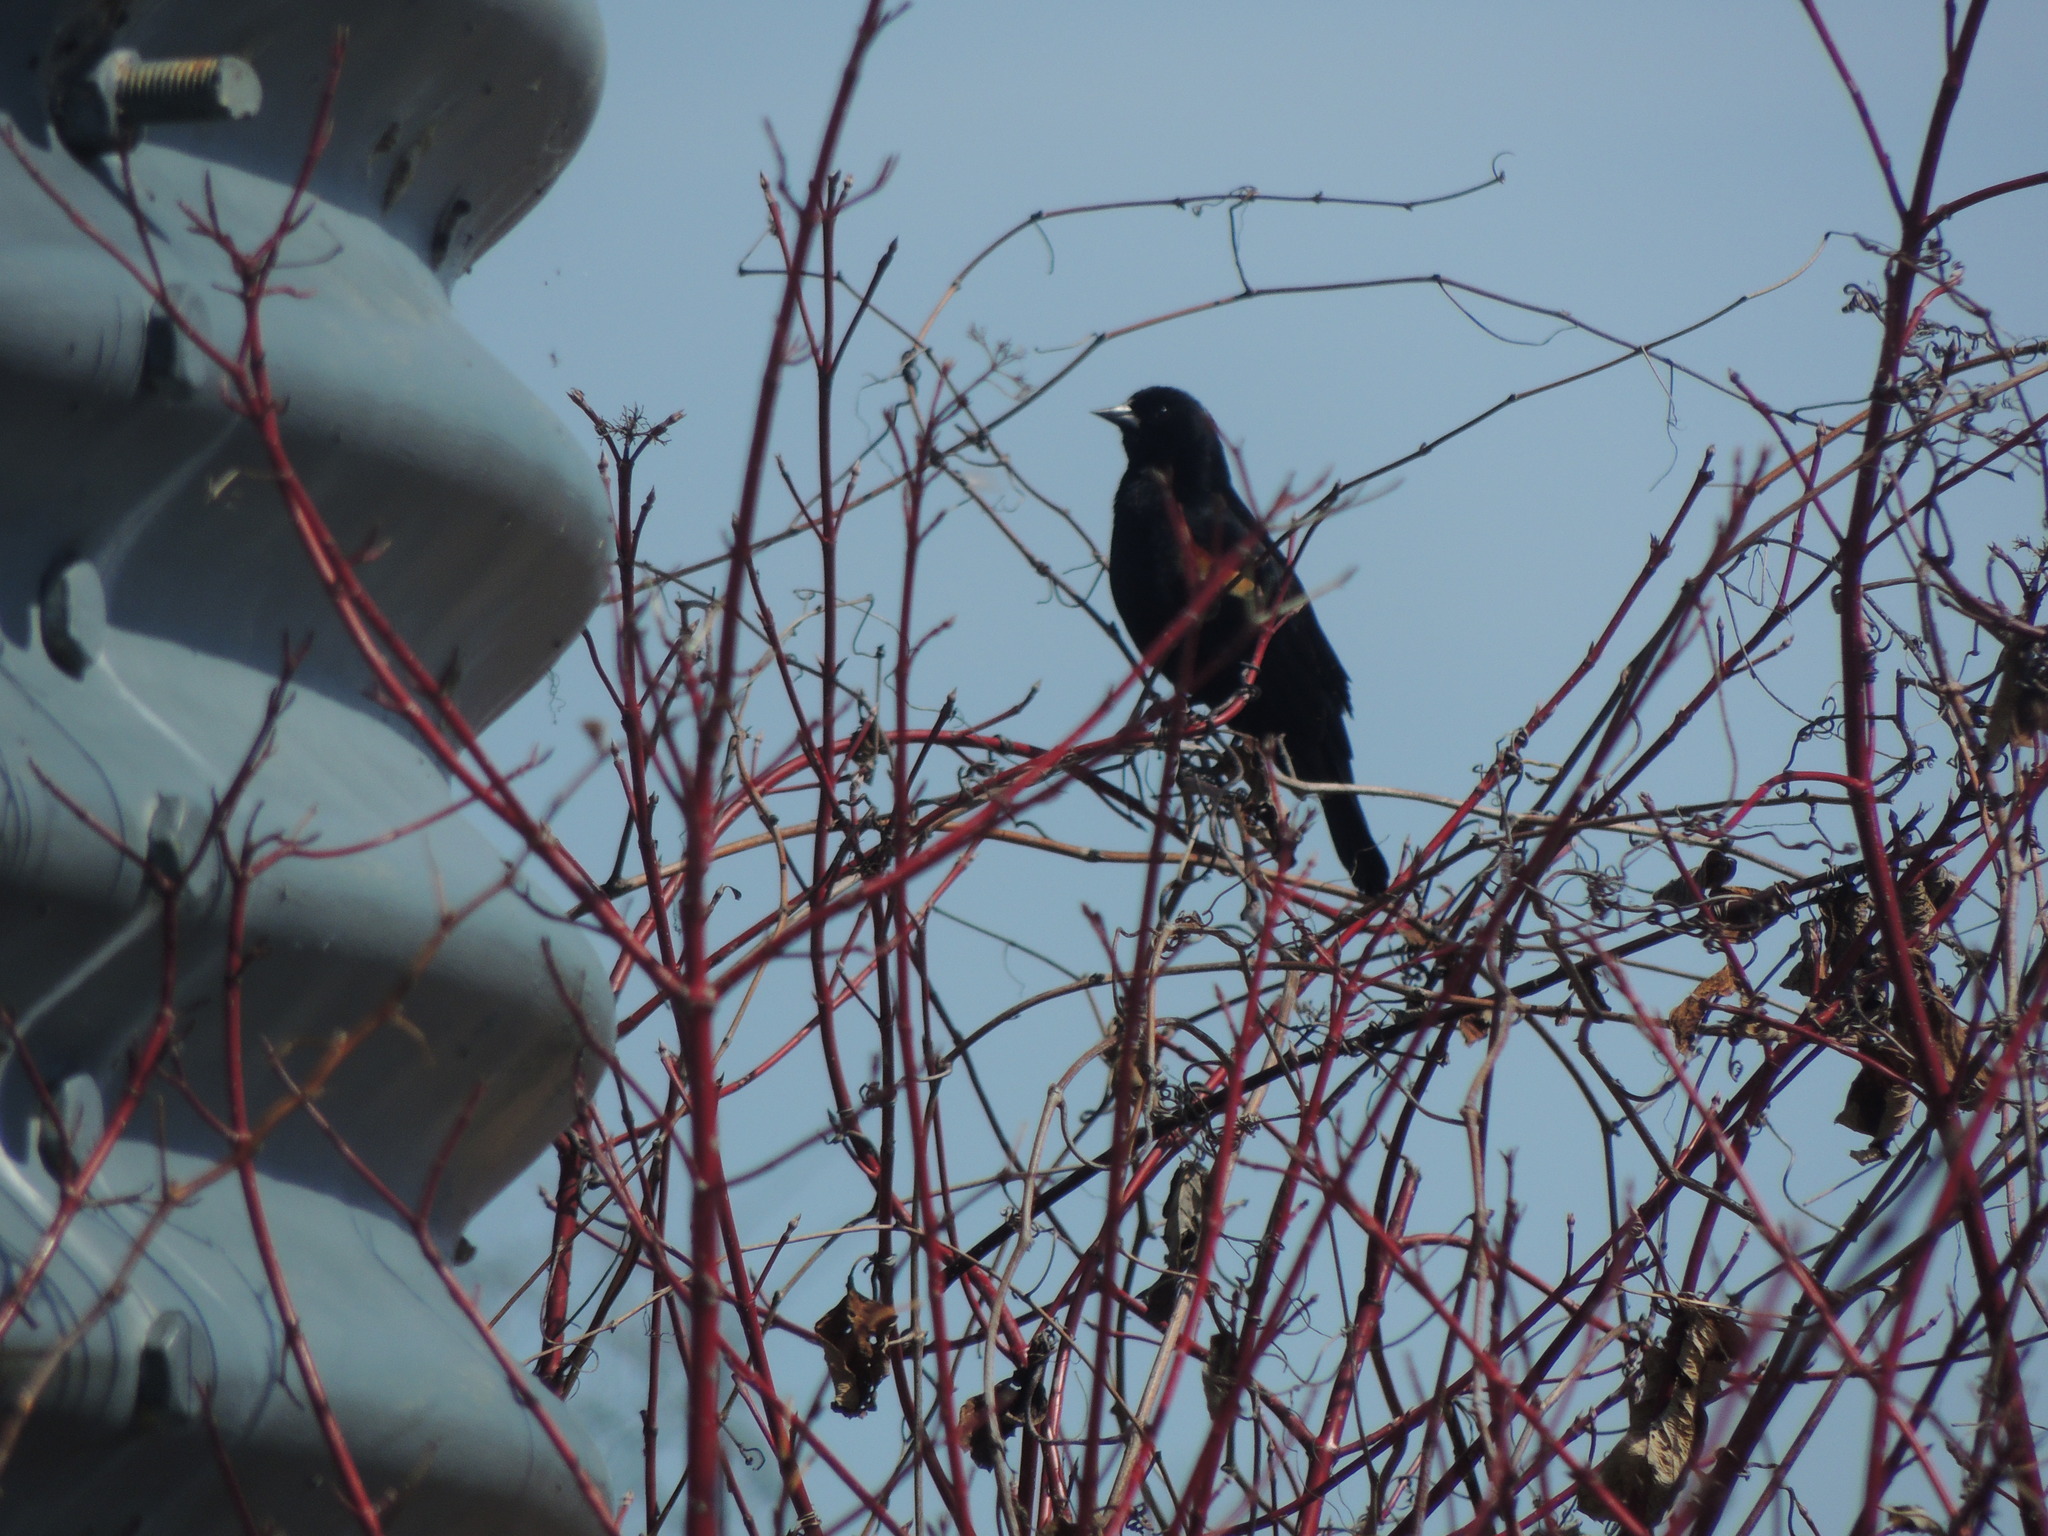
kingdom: Animalia
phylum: Chordata
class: Aves
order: Passeriformes
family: Icteridae
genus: Agelaius
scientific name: Agelaius phoeniceus
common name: Red-winged blackbird
